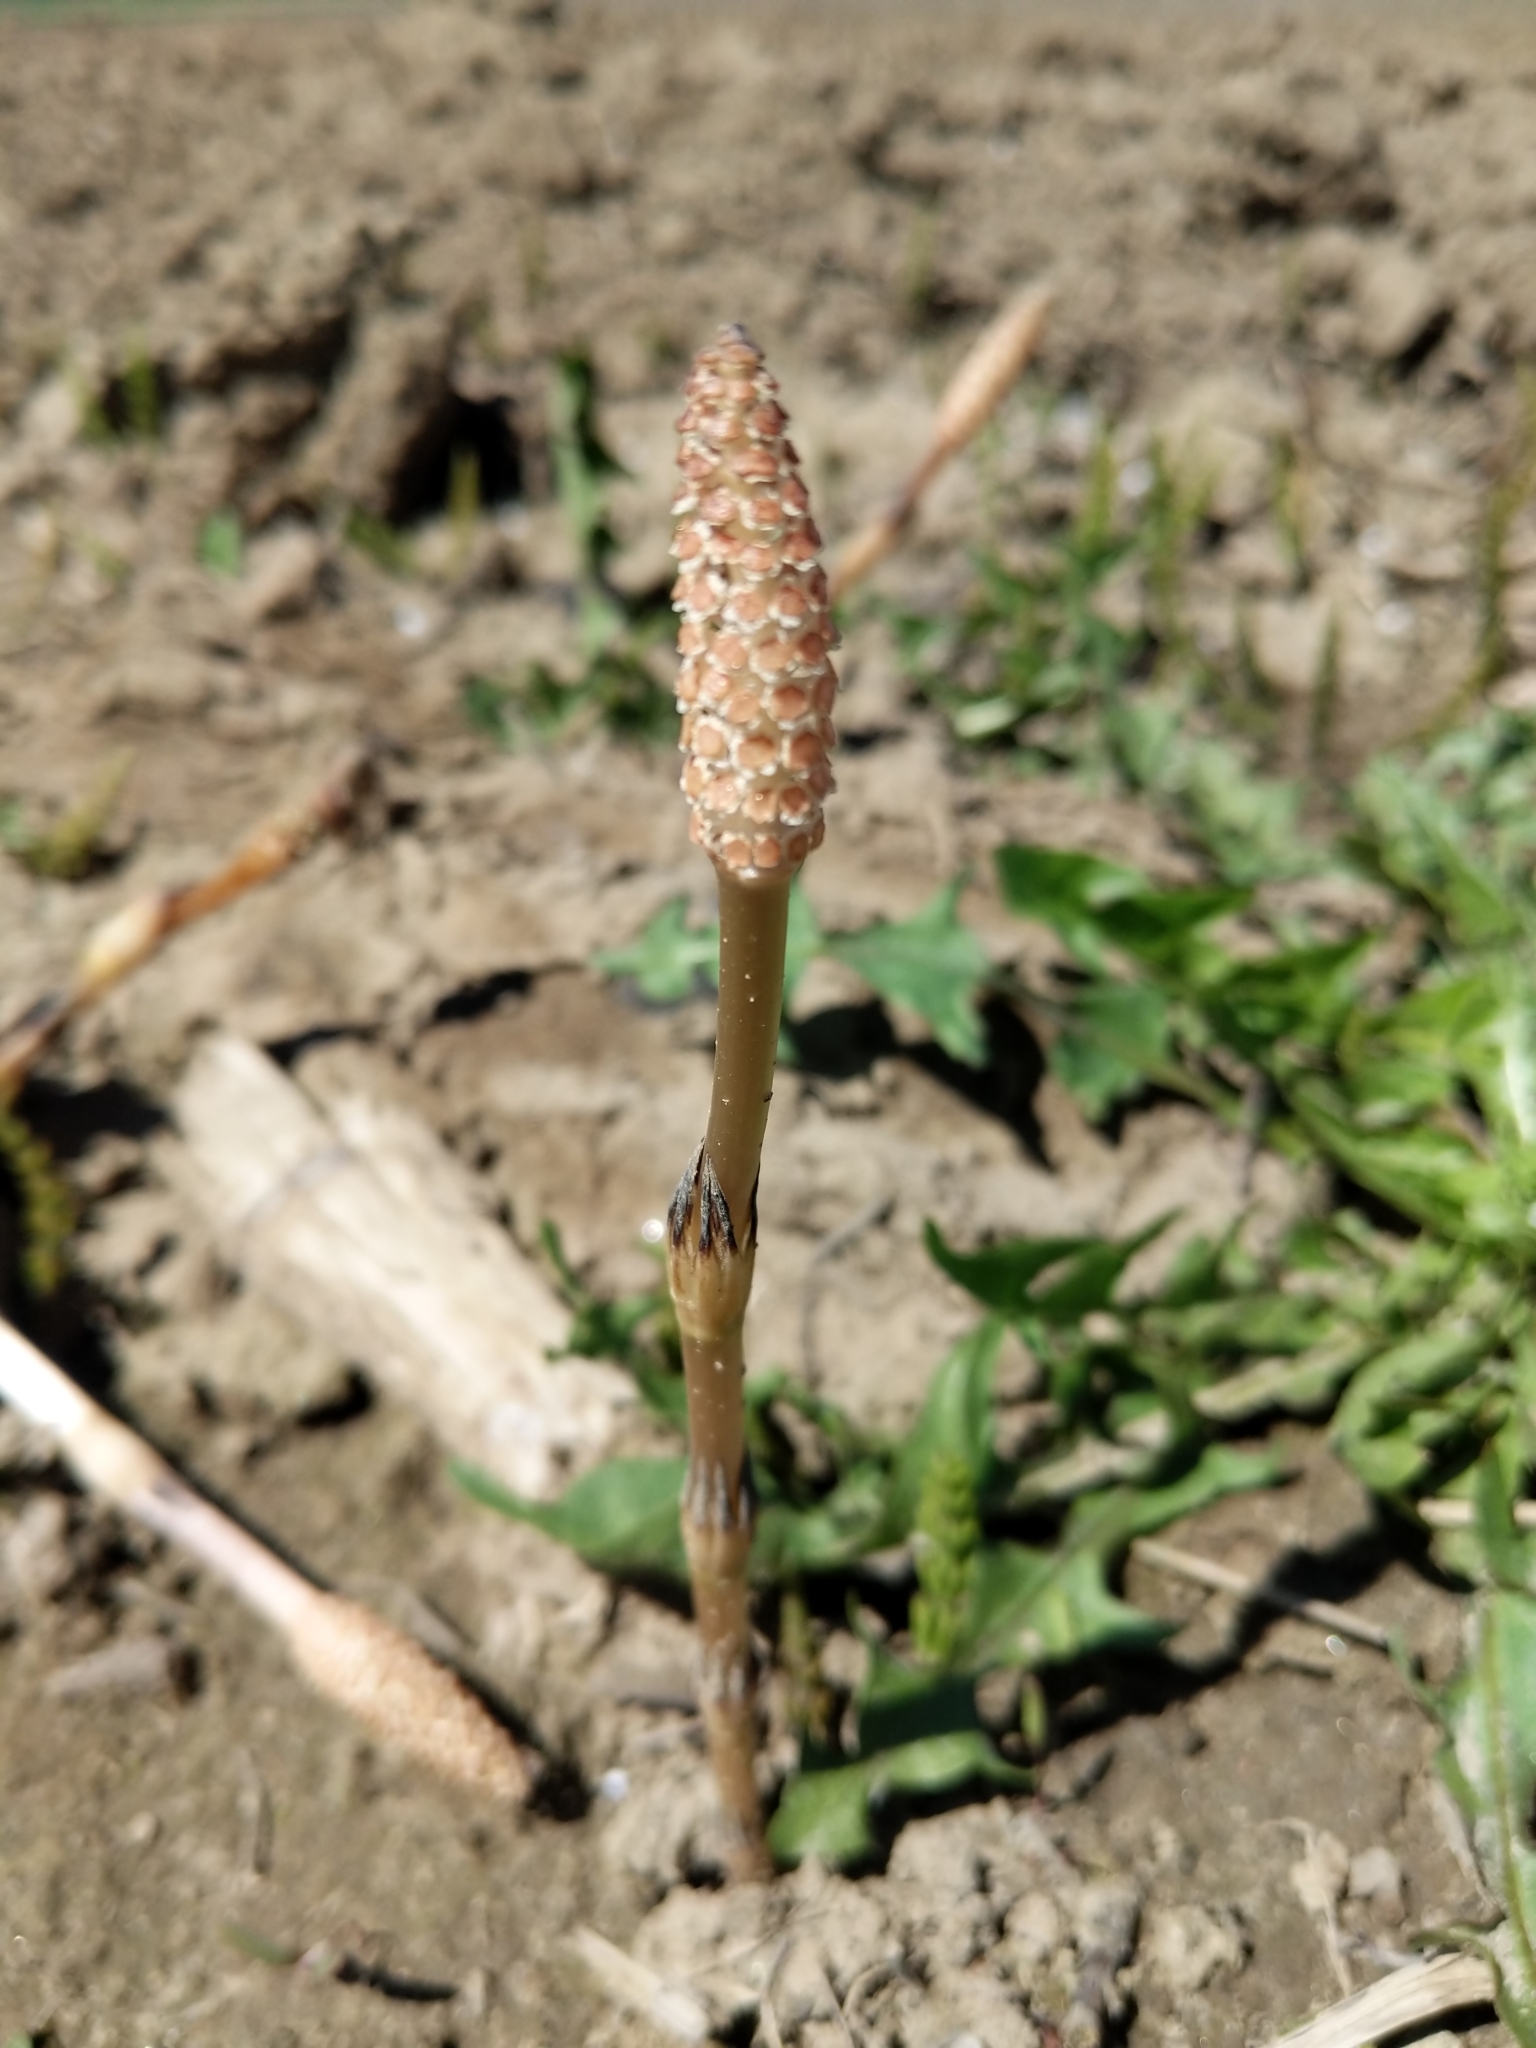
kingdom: Plantae
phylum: Tracheophyta
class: Polypodiopsida
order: Equisetales
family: Equisetaceae
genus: Equisetum
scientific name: Equisetum arvense
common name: Field horsetail
